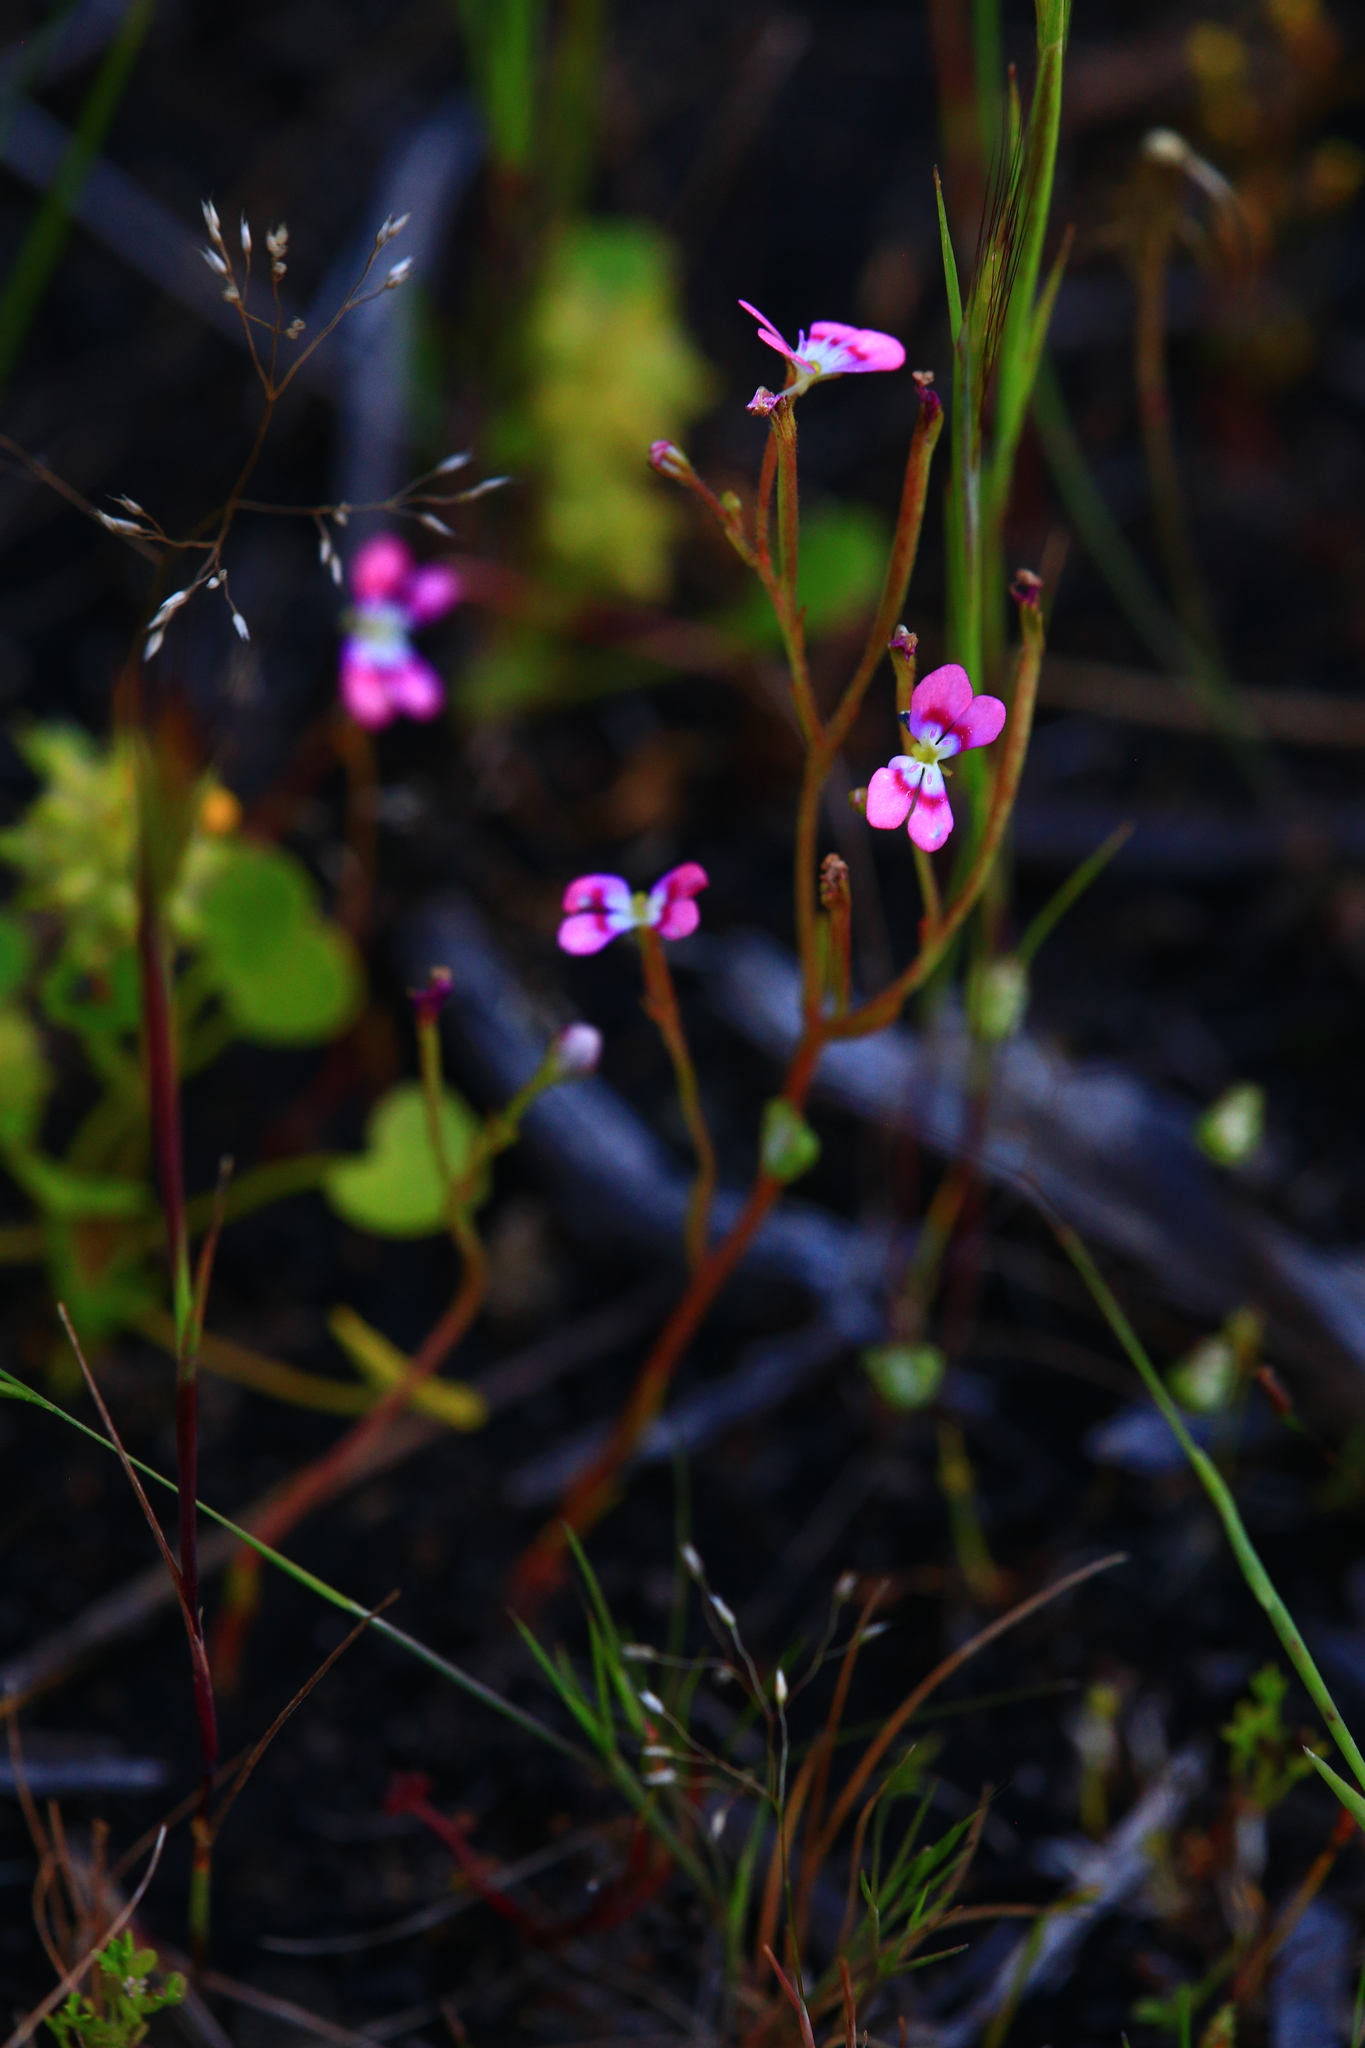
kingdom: Plantae
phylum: Tracheophyta
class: Magnoliopsida
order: Asterales
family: Stylidiaceae
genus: Stylidium
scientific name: Stylidium longitubum
